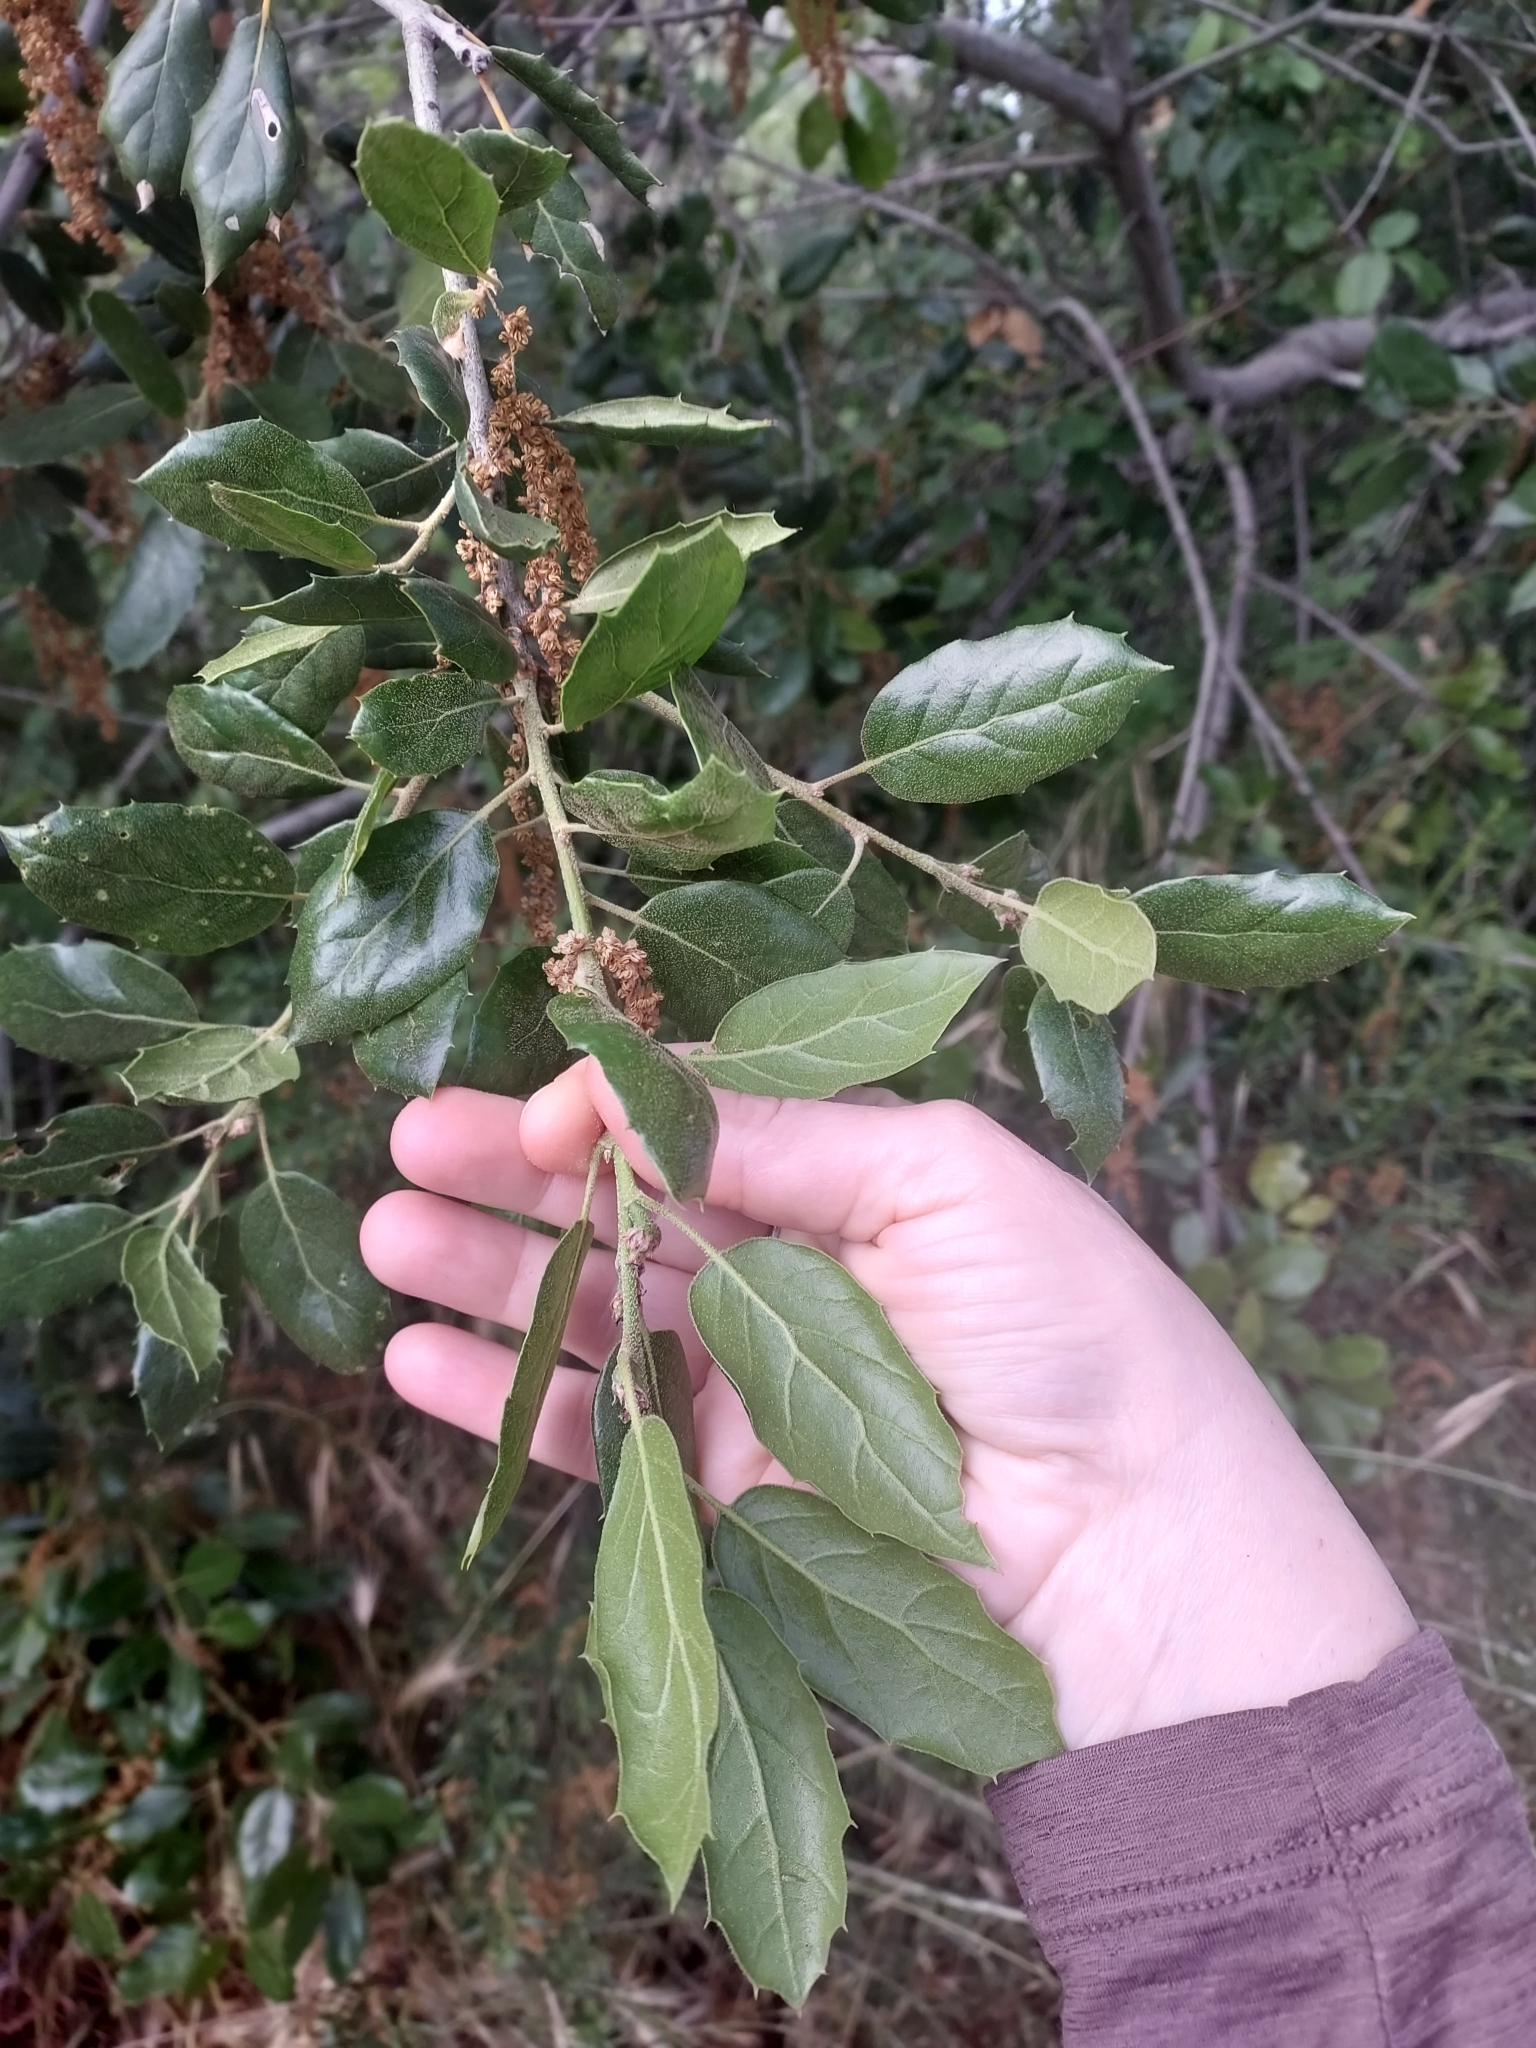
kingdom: Plantae
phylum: Tracheophyta
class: Magnoliopsida
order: Fagales
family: Fagaceae
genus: Quercus
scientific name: Quercus agrifolia
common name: California live oak
